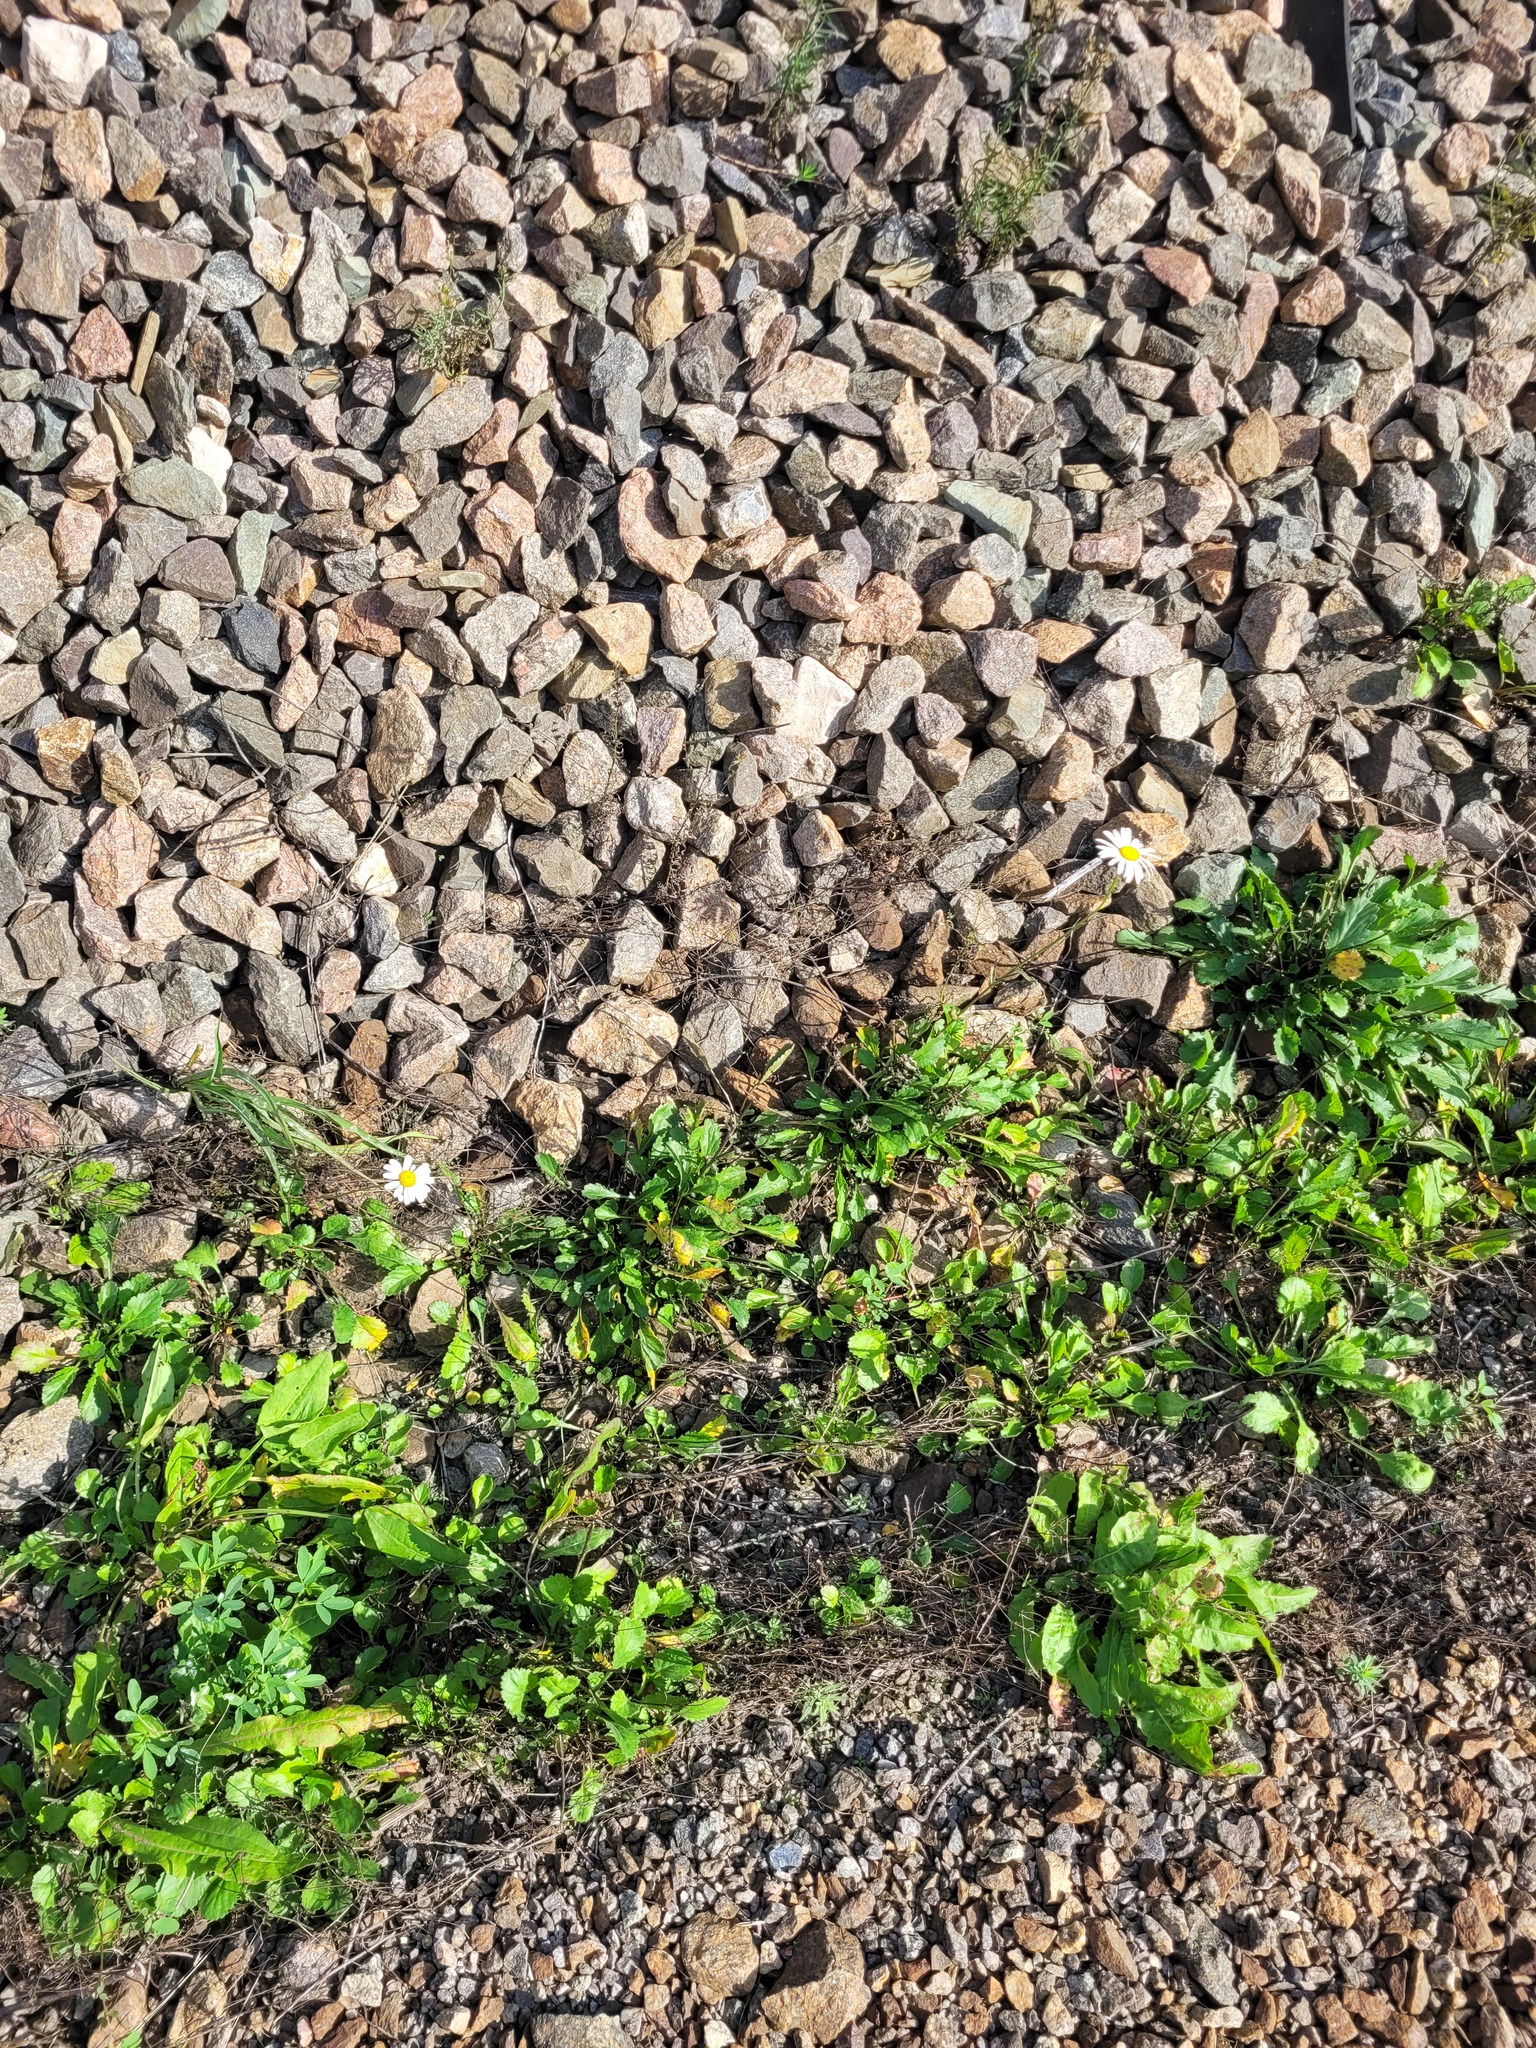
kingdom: Plantae
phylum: Tracheophyta
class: Magnoliopsida
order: Asterales
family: Asteraceae
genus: Leucanthemum
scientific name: Leucanthemum vulgare
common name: Oxeye daisy
